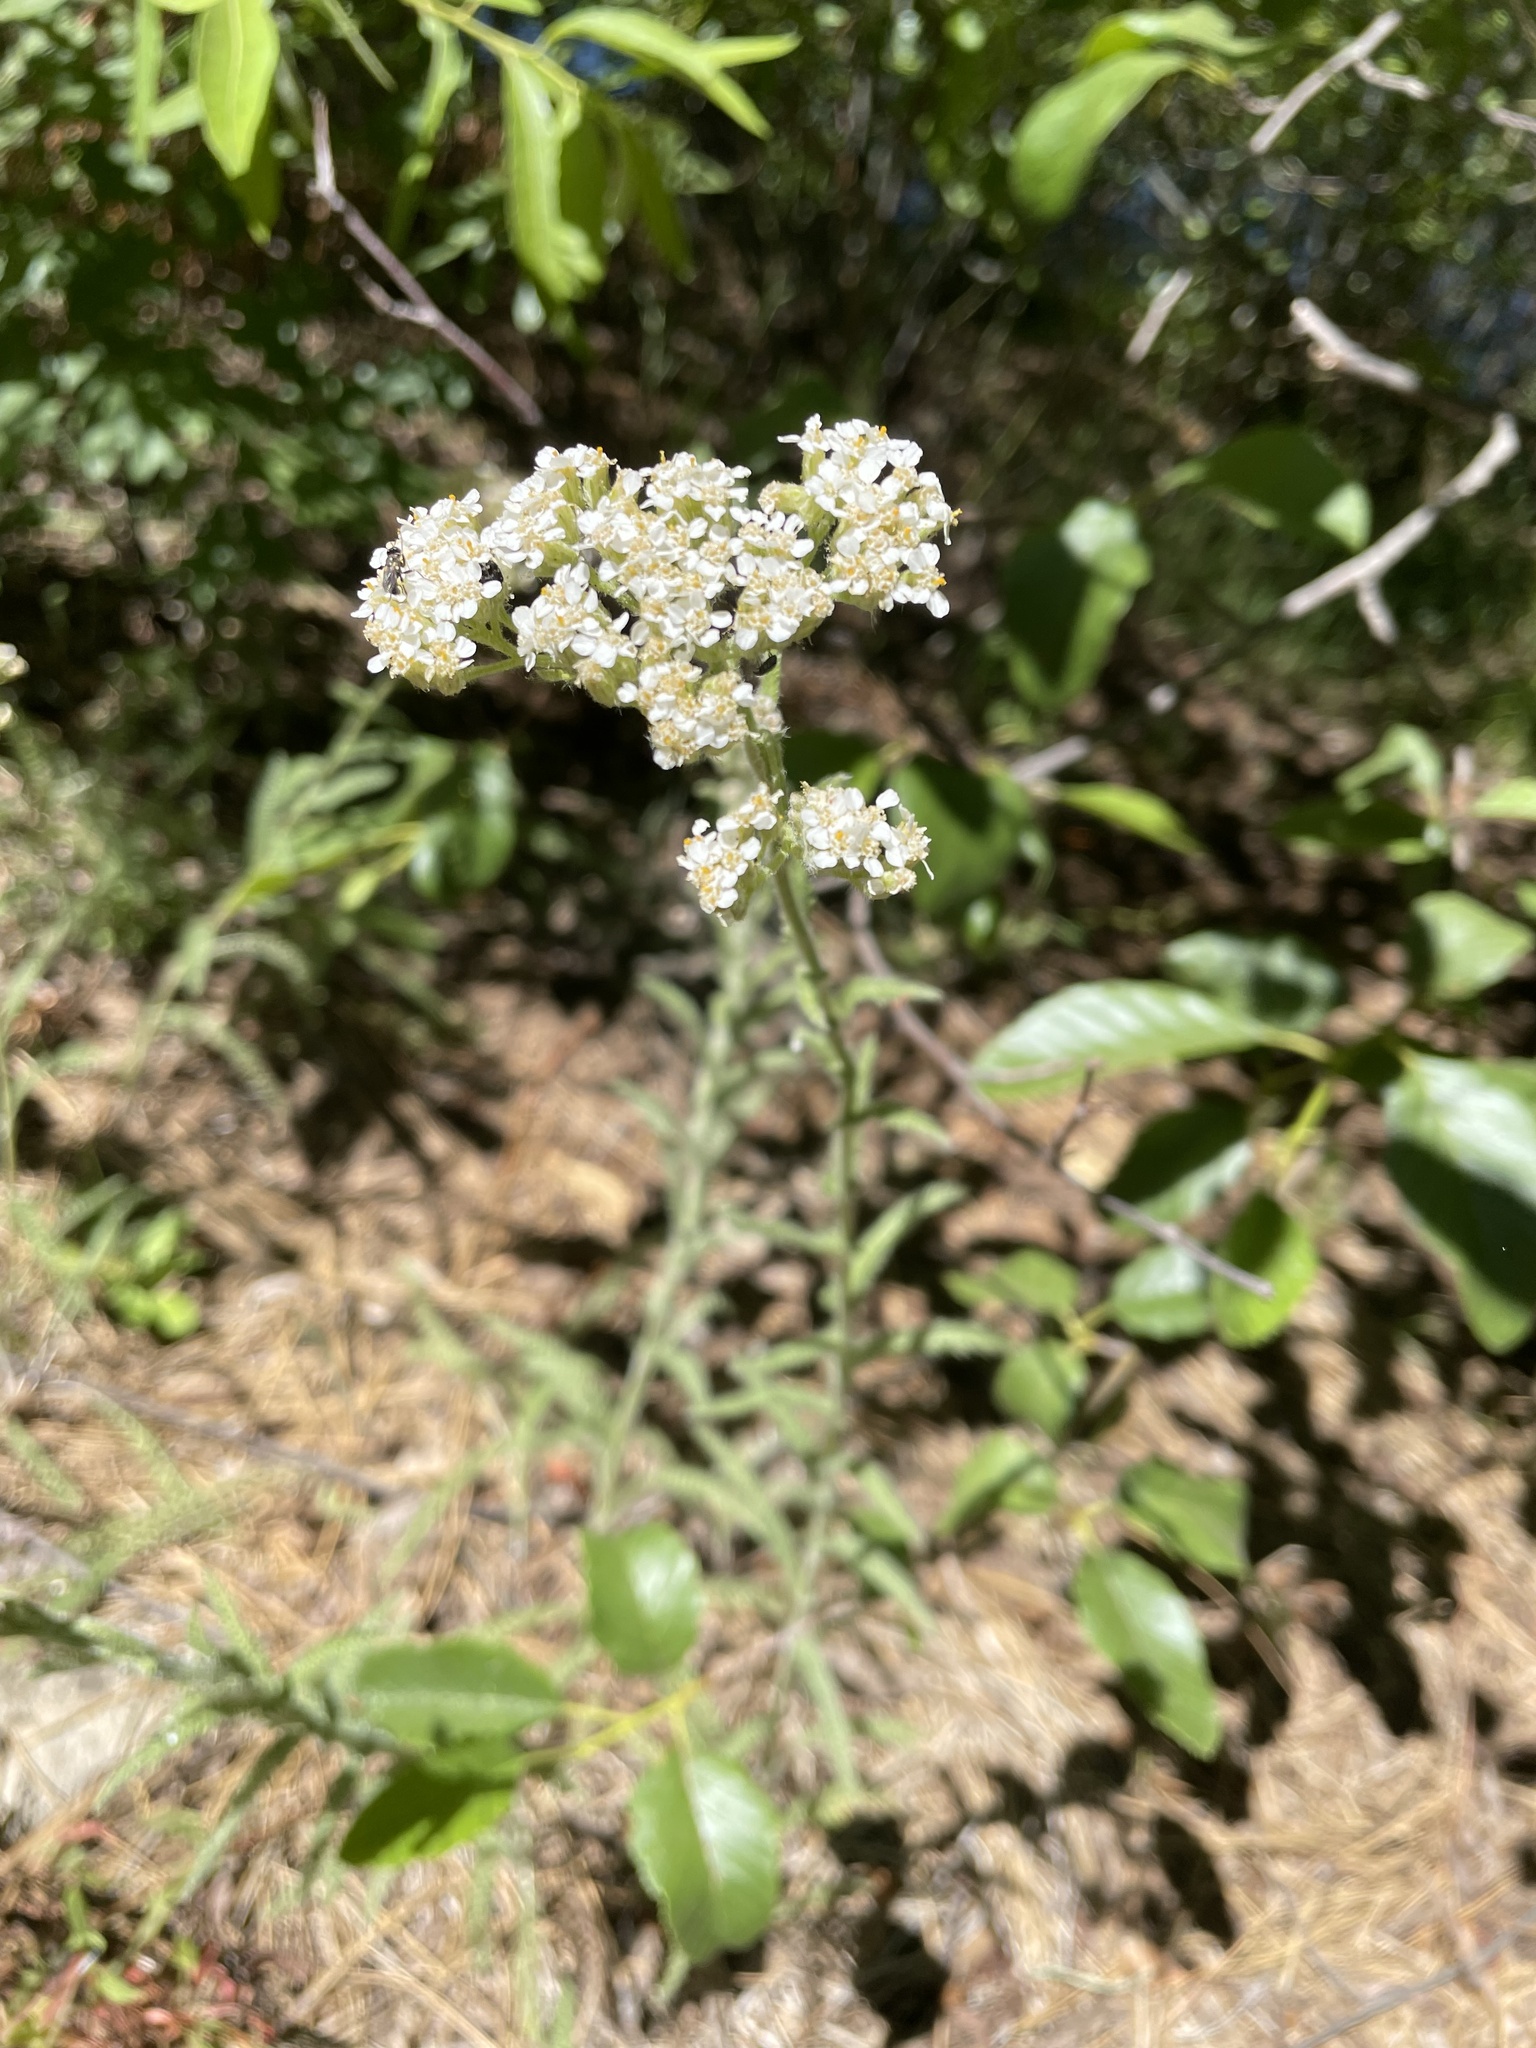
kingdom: Plantae
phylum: Tracheophyta
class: Magnoliopsida
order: Asterales
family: Asteraceae
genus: Achillea
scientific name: Achillea millefolium
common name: Yarrow
